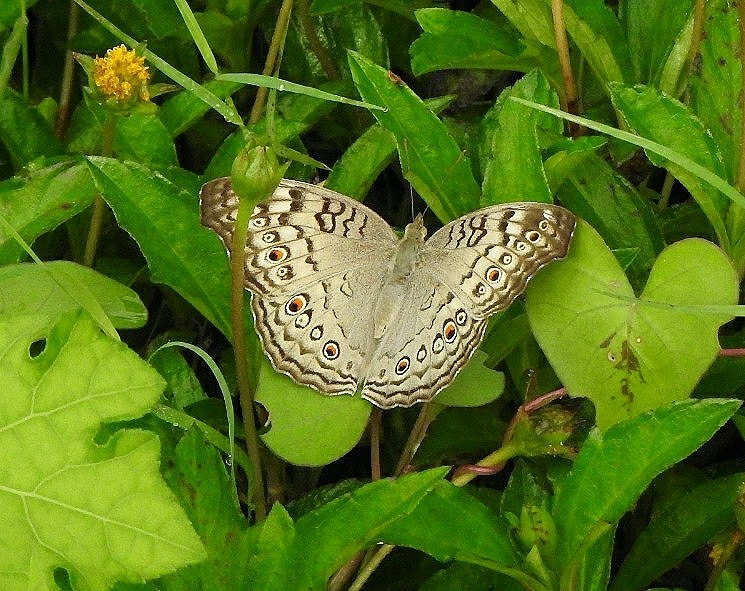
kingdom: Animalia
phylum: Arthropoda
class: Insecta
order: Lepidoptera
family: Nymphalidae
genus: Junonia
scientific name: Junonia atlites
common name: Grey pansy
